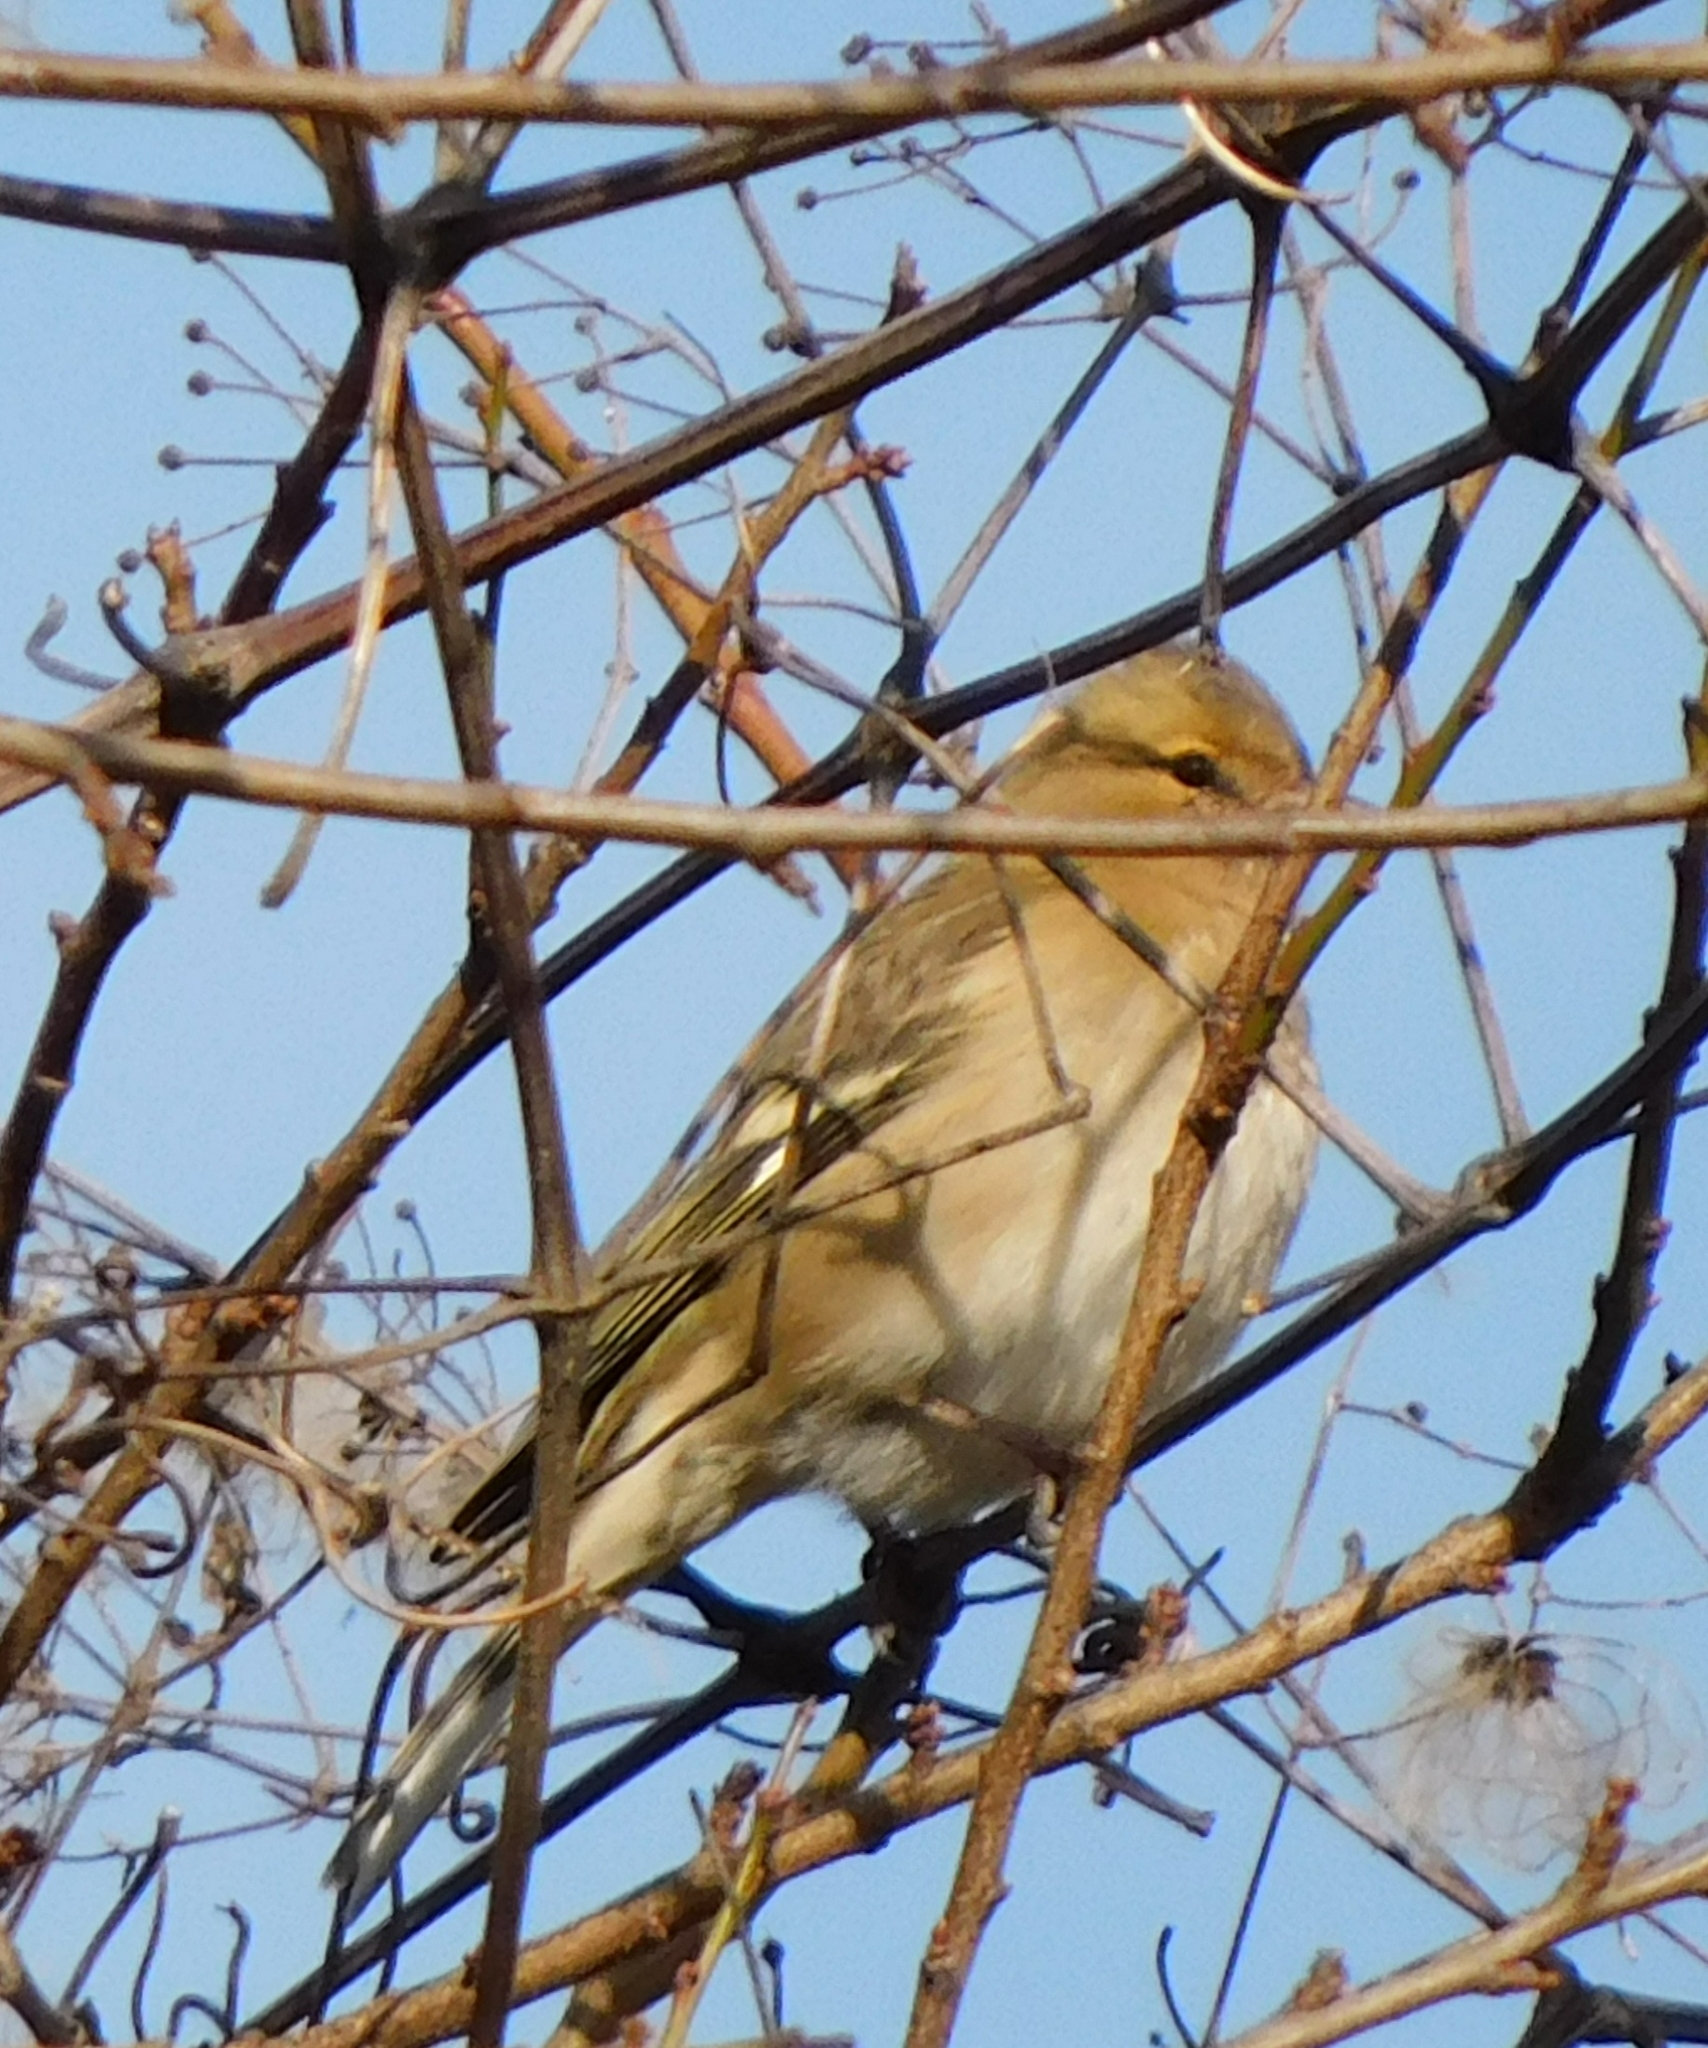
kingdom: Animalia
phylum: Chordata
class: Aves
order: Passeriformes
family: Fringillidae
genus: Fringilla
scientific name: Fringilla coelebs
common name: Common chaffinch
